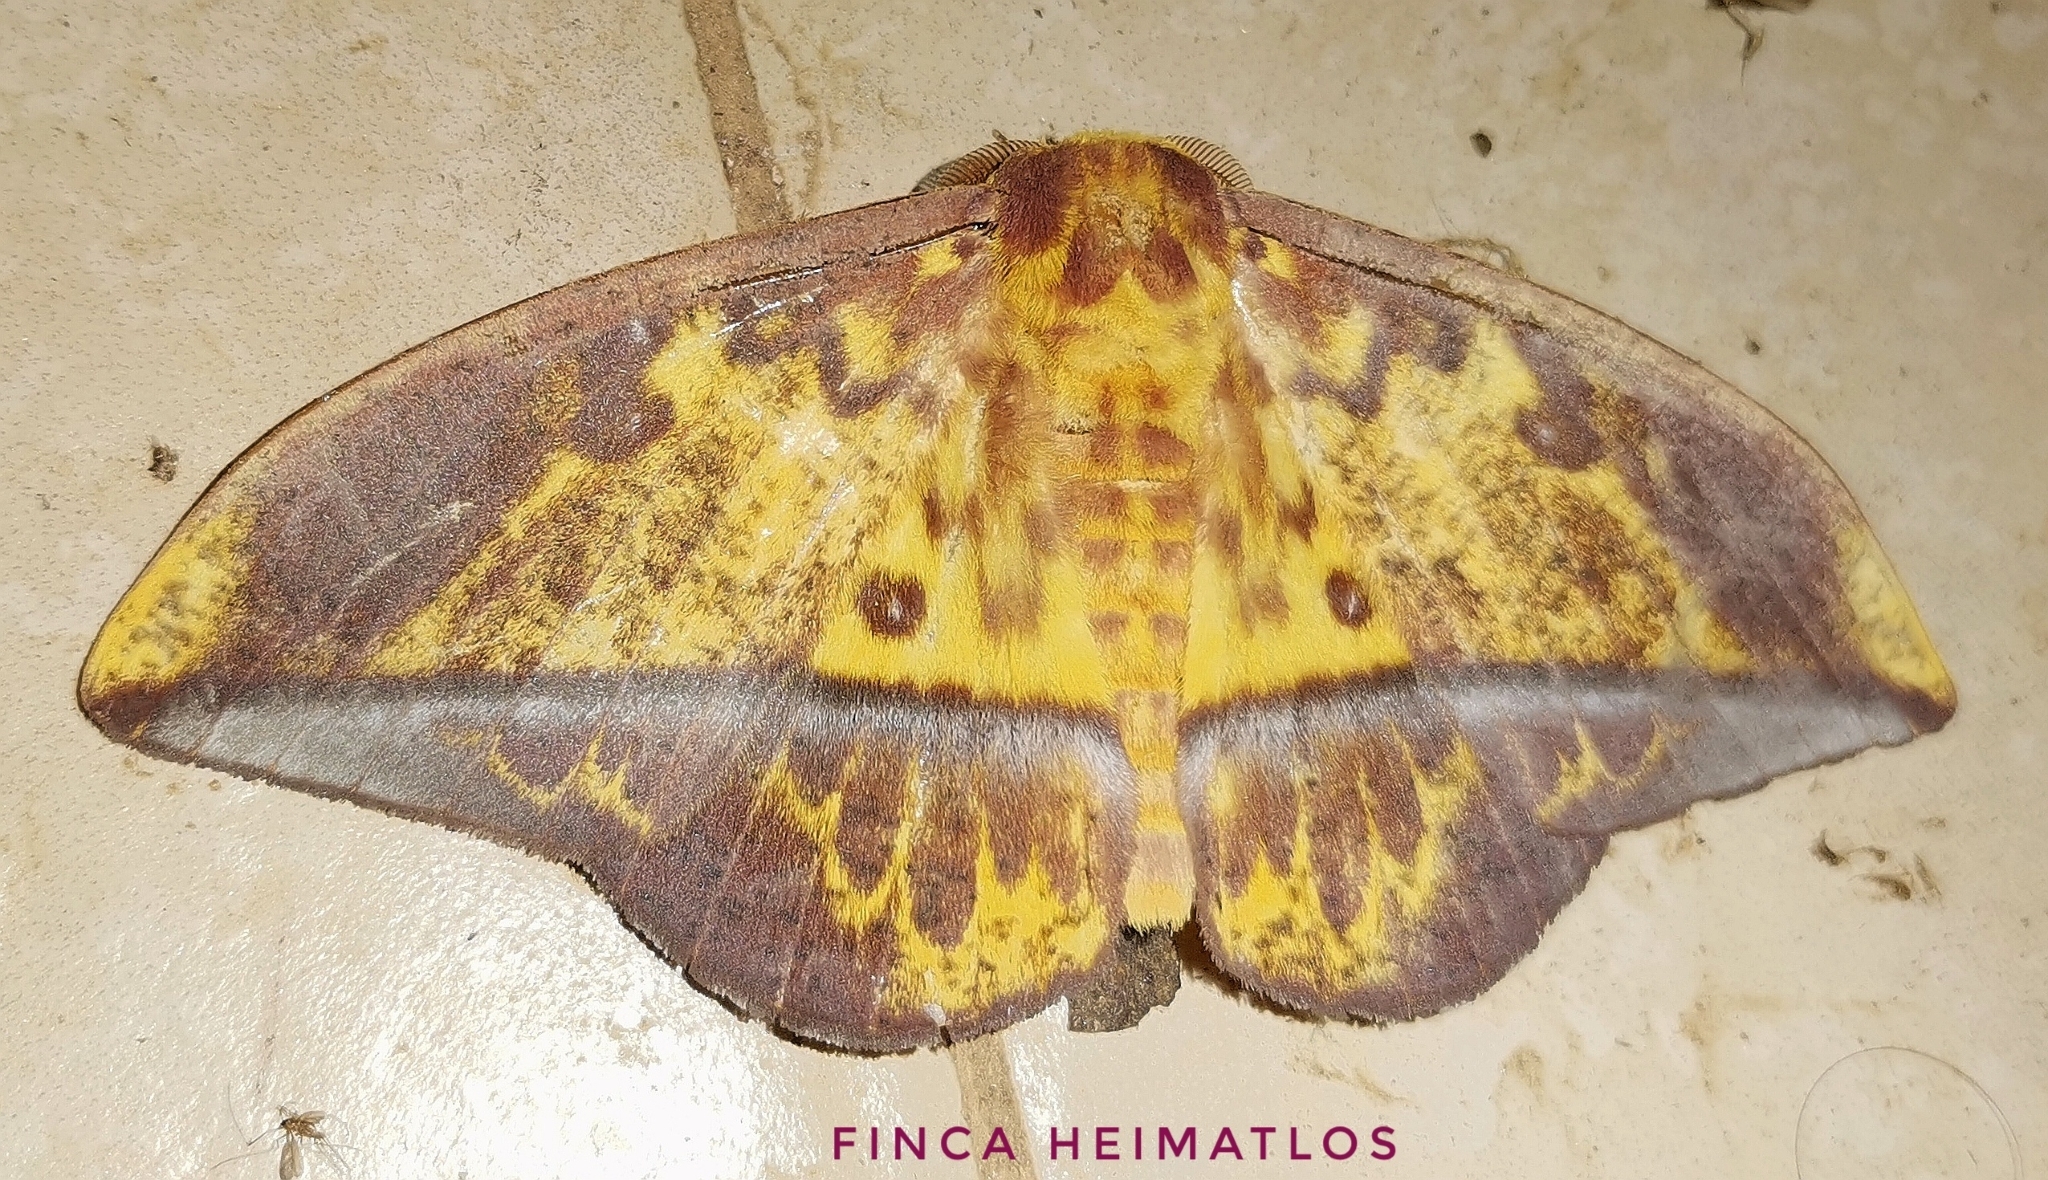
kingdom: Animalia
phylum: Arthropoda
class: Insecta
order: Lepidoptera
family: Saturniidae
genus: Eacles
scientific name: Eacles adoxa
